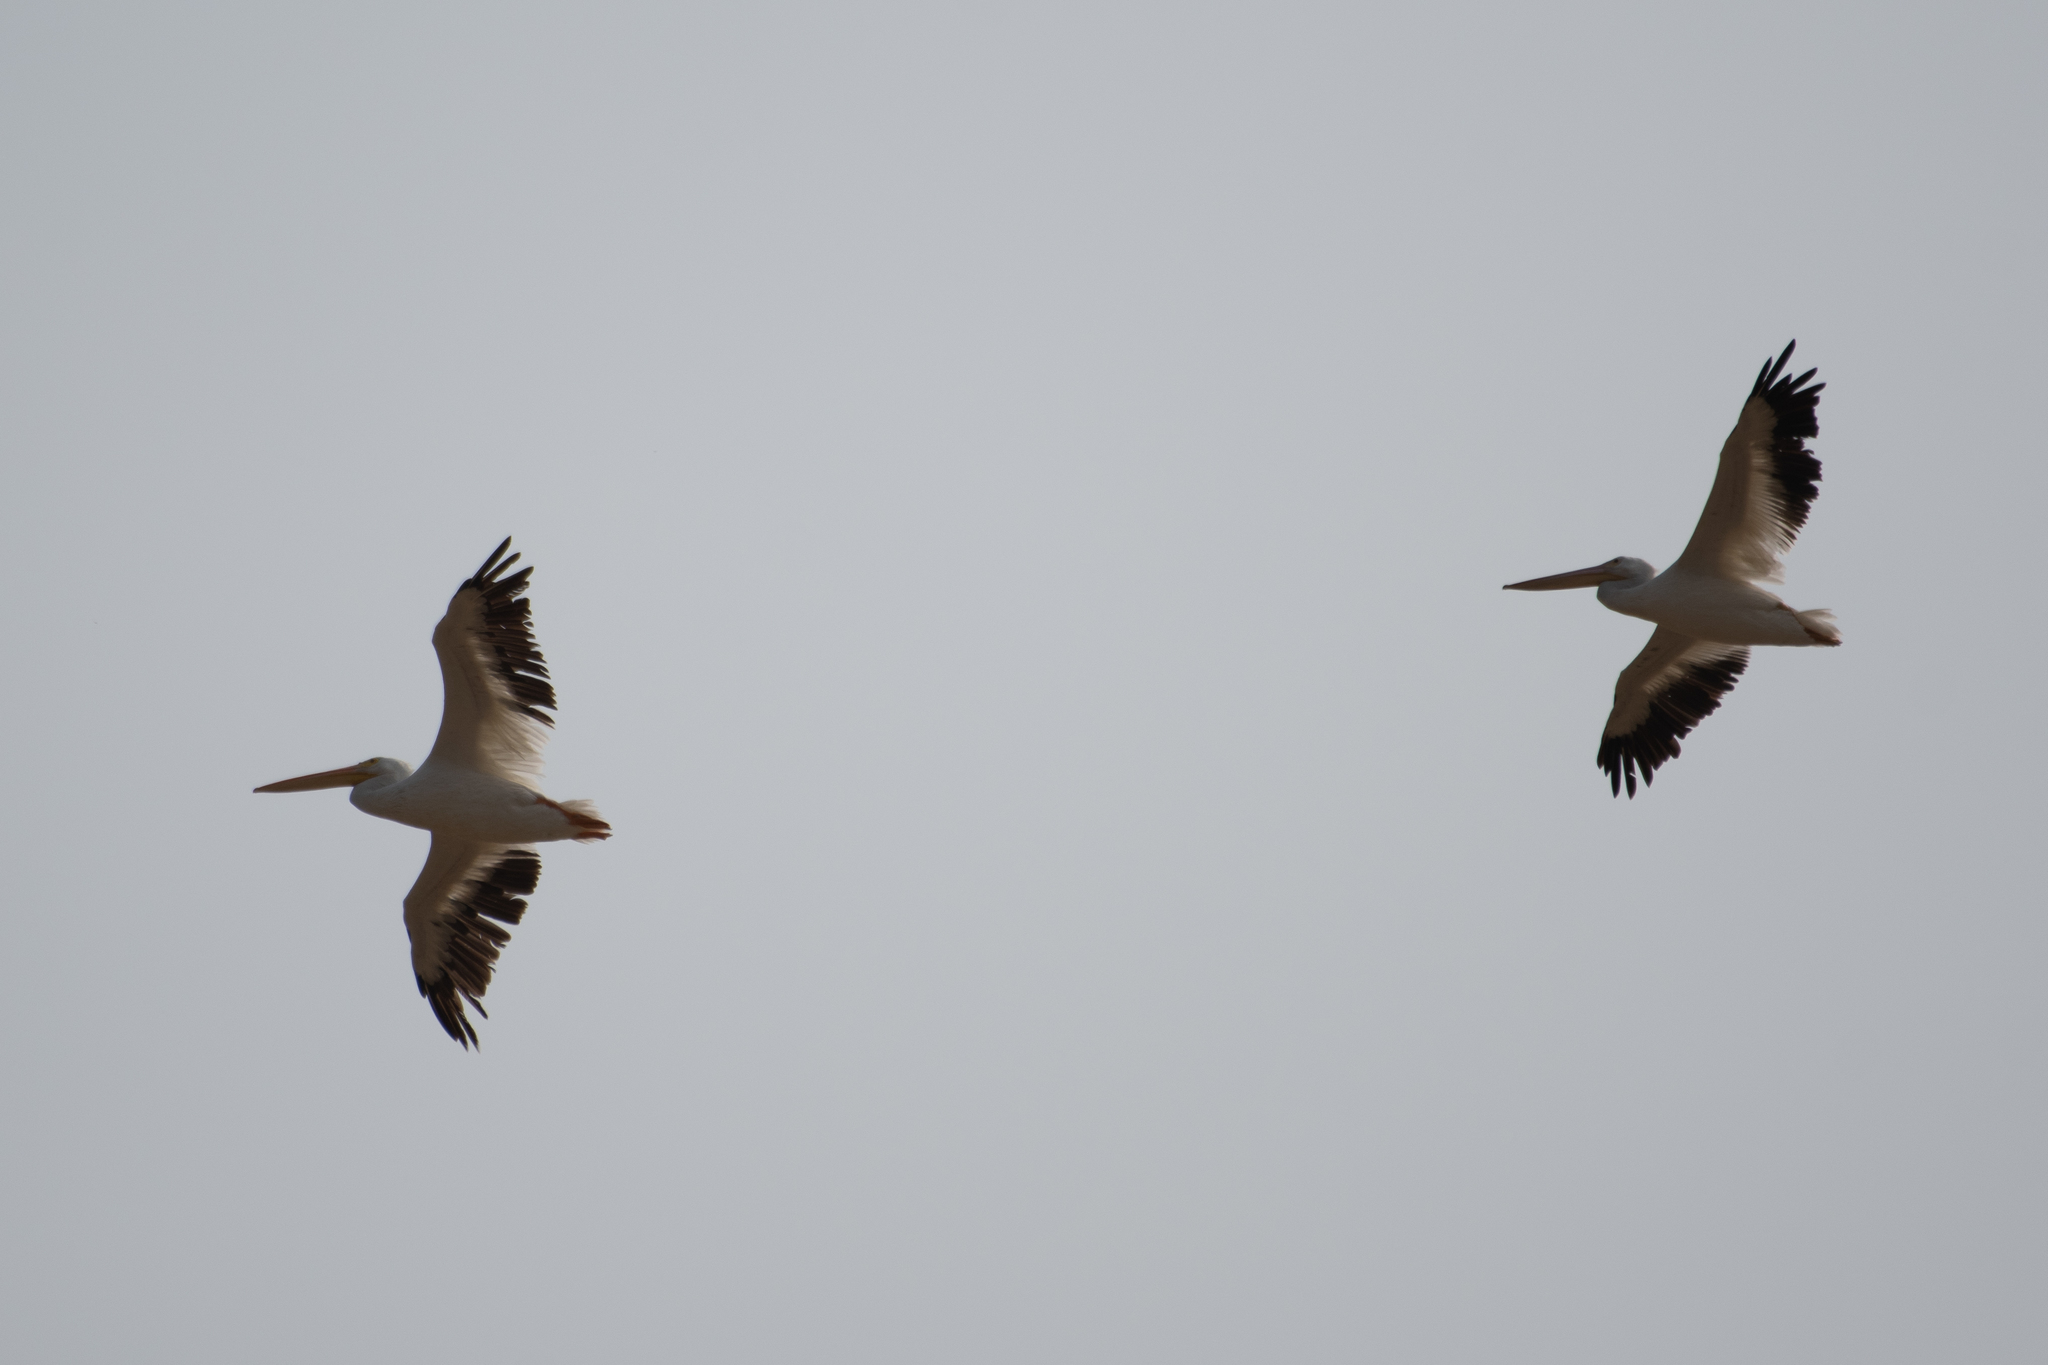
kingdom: Animalia
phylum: Chordata
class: Aves
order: Pelecaniformes
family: Pelecanidae
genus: Pelecanus
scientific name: Pelecanus erythrorhynchos
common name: American white pelican
